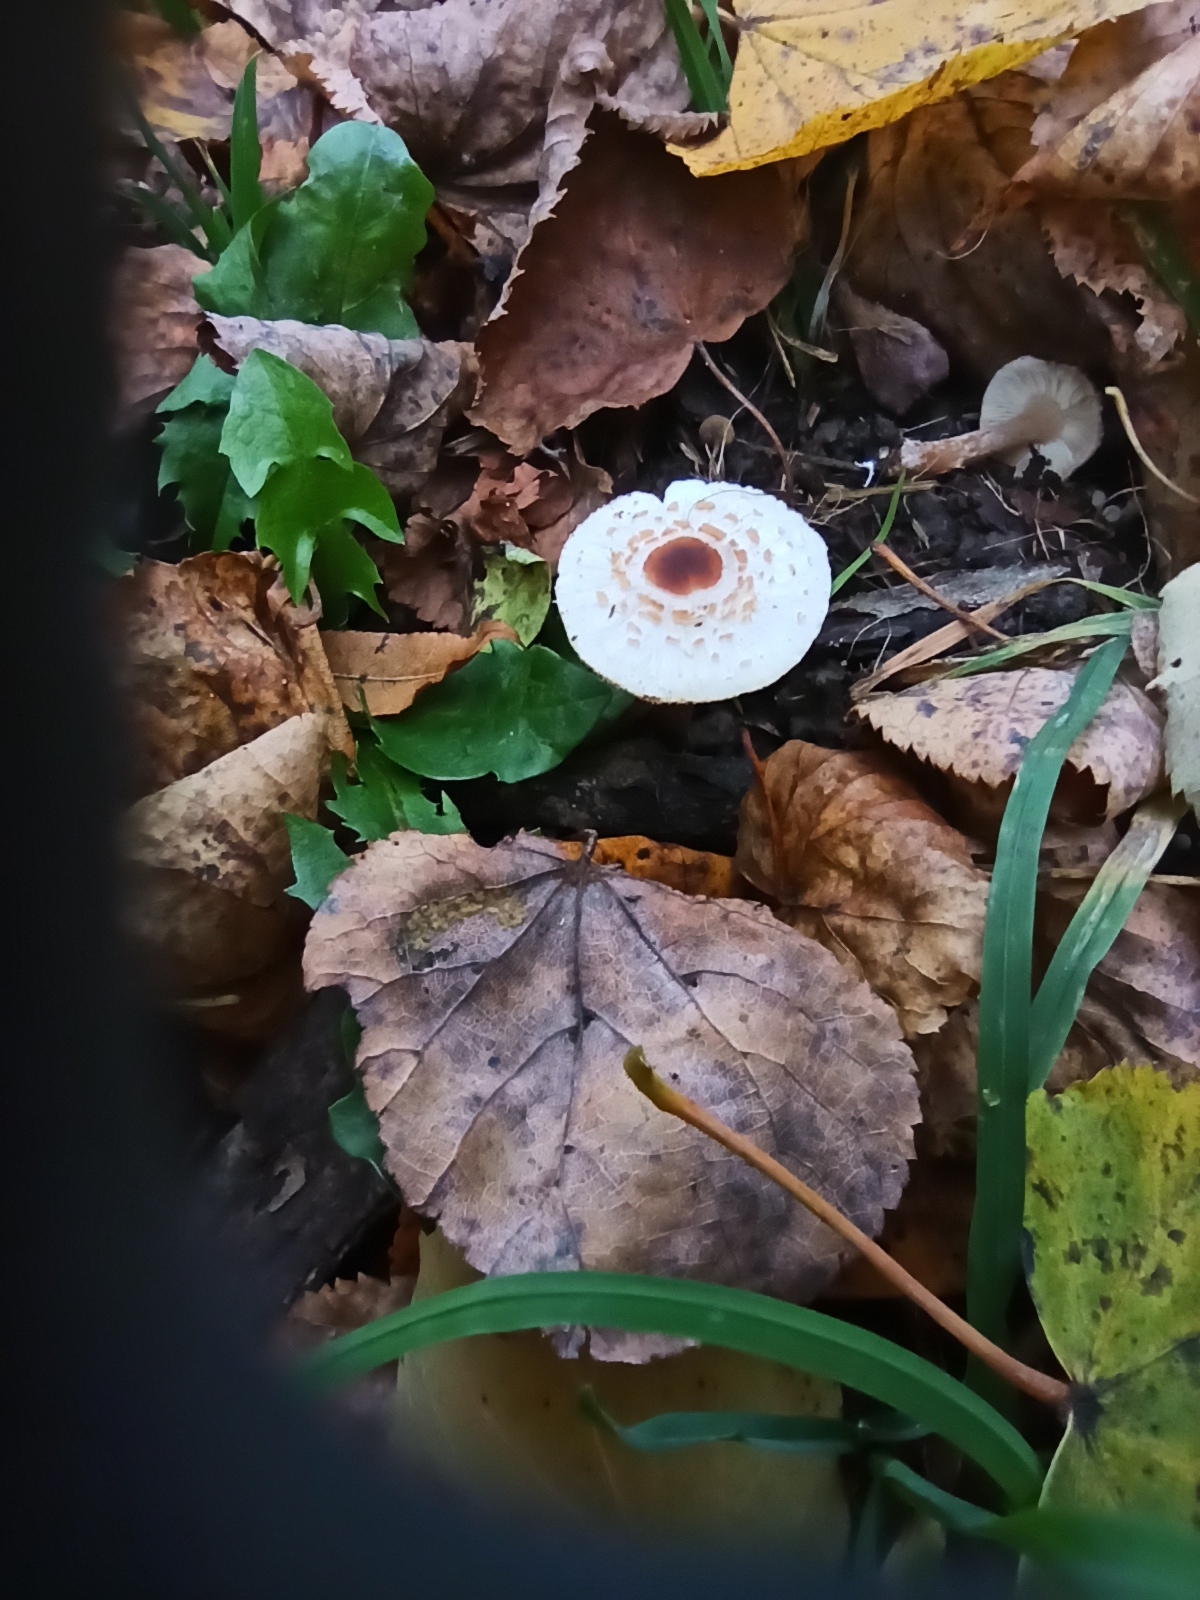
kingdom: Fungi
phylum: Basidiomycota
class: Agaricomycetes
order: Agaricales
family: Agaricaceae
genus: Lepiota
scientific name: Lepiota cristata
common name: Stinking dapperling
